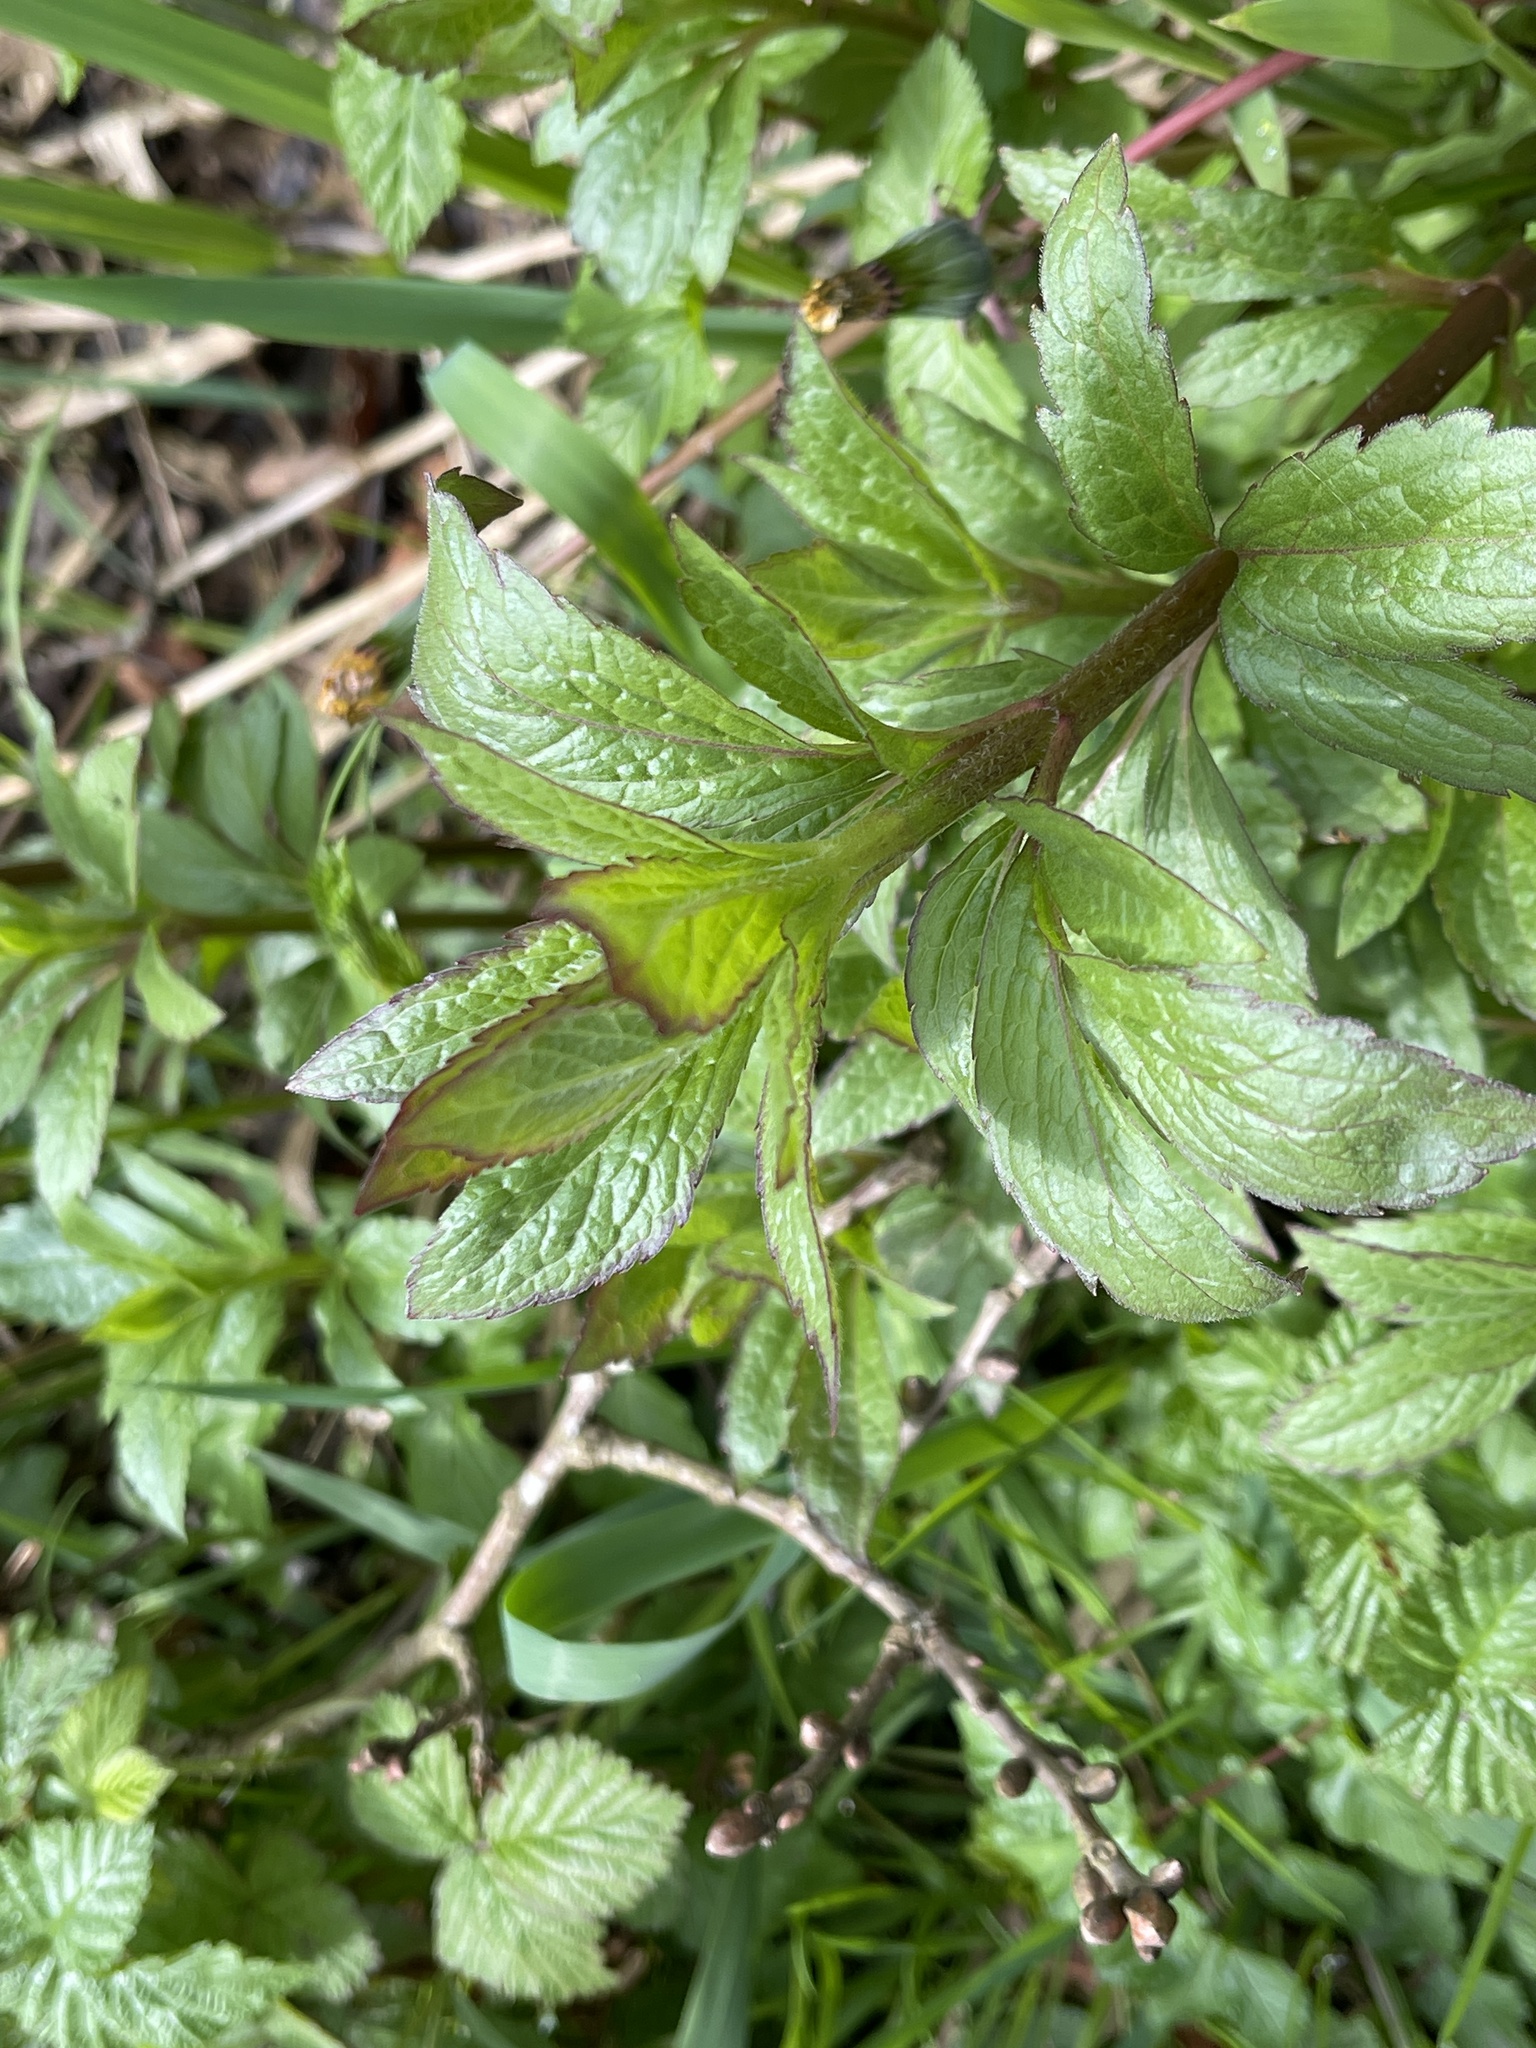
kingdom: Plantae
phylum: Tracheophyta
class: Magnoliopsida
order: Asterales
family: Asteraceae
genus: Eupatorium
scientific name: Eupatorium cannabinum
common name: Hemp-agrimony
